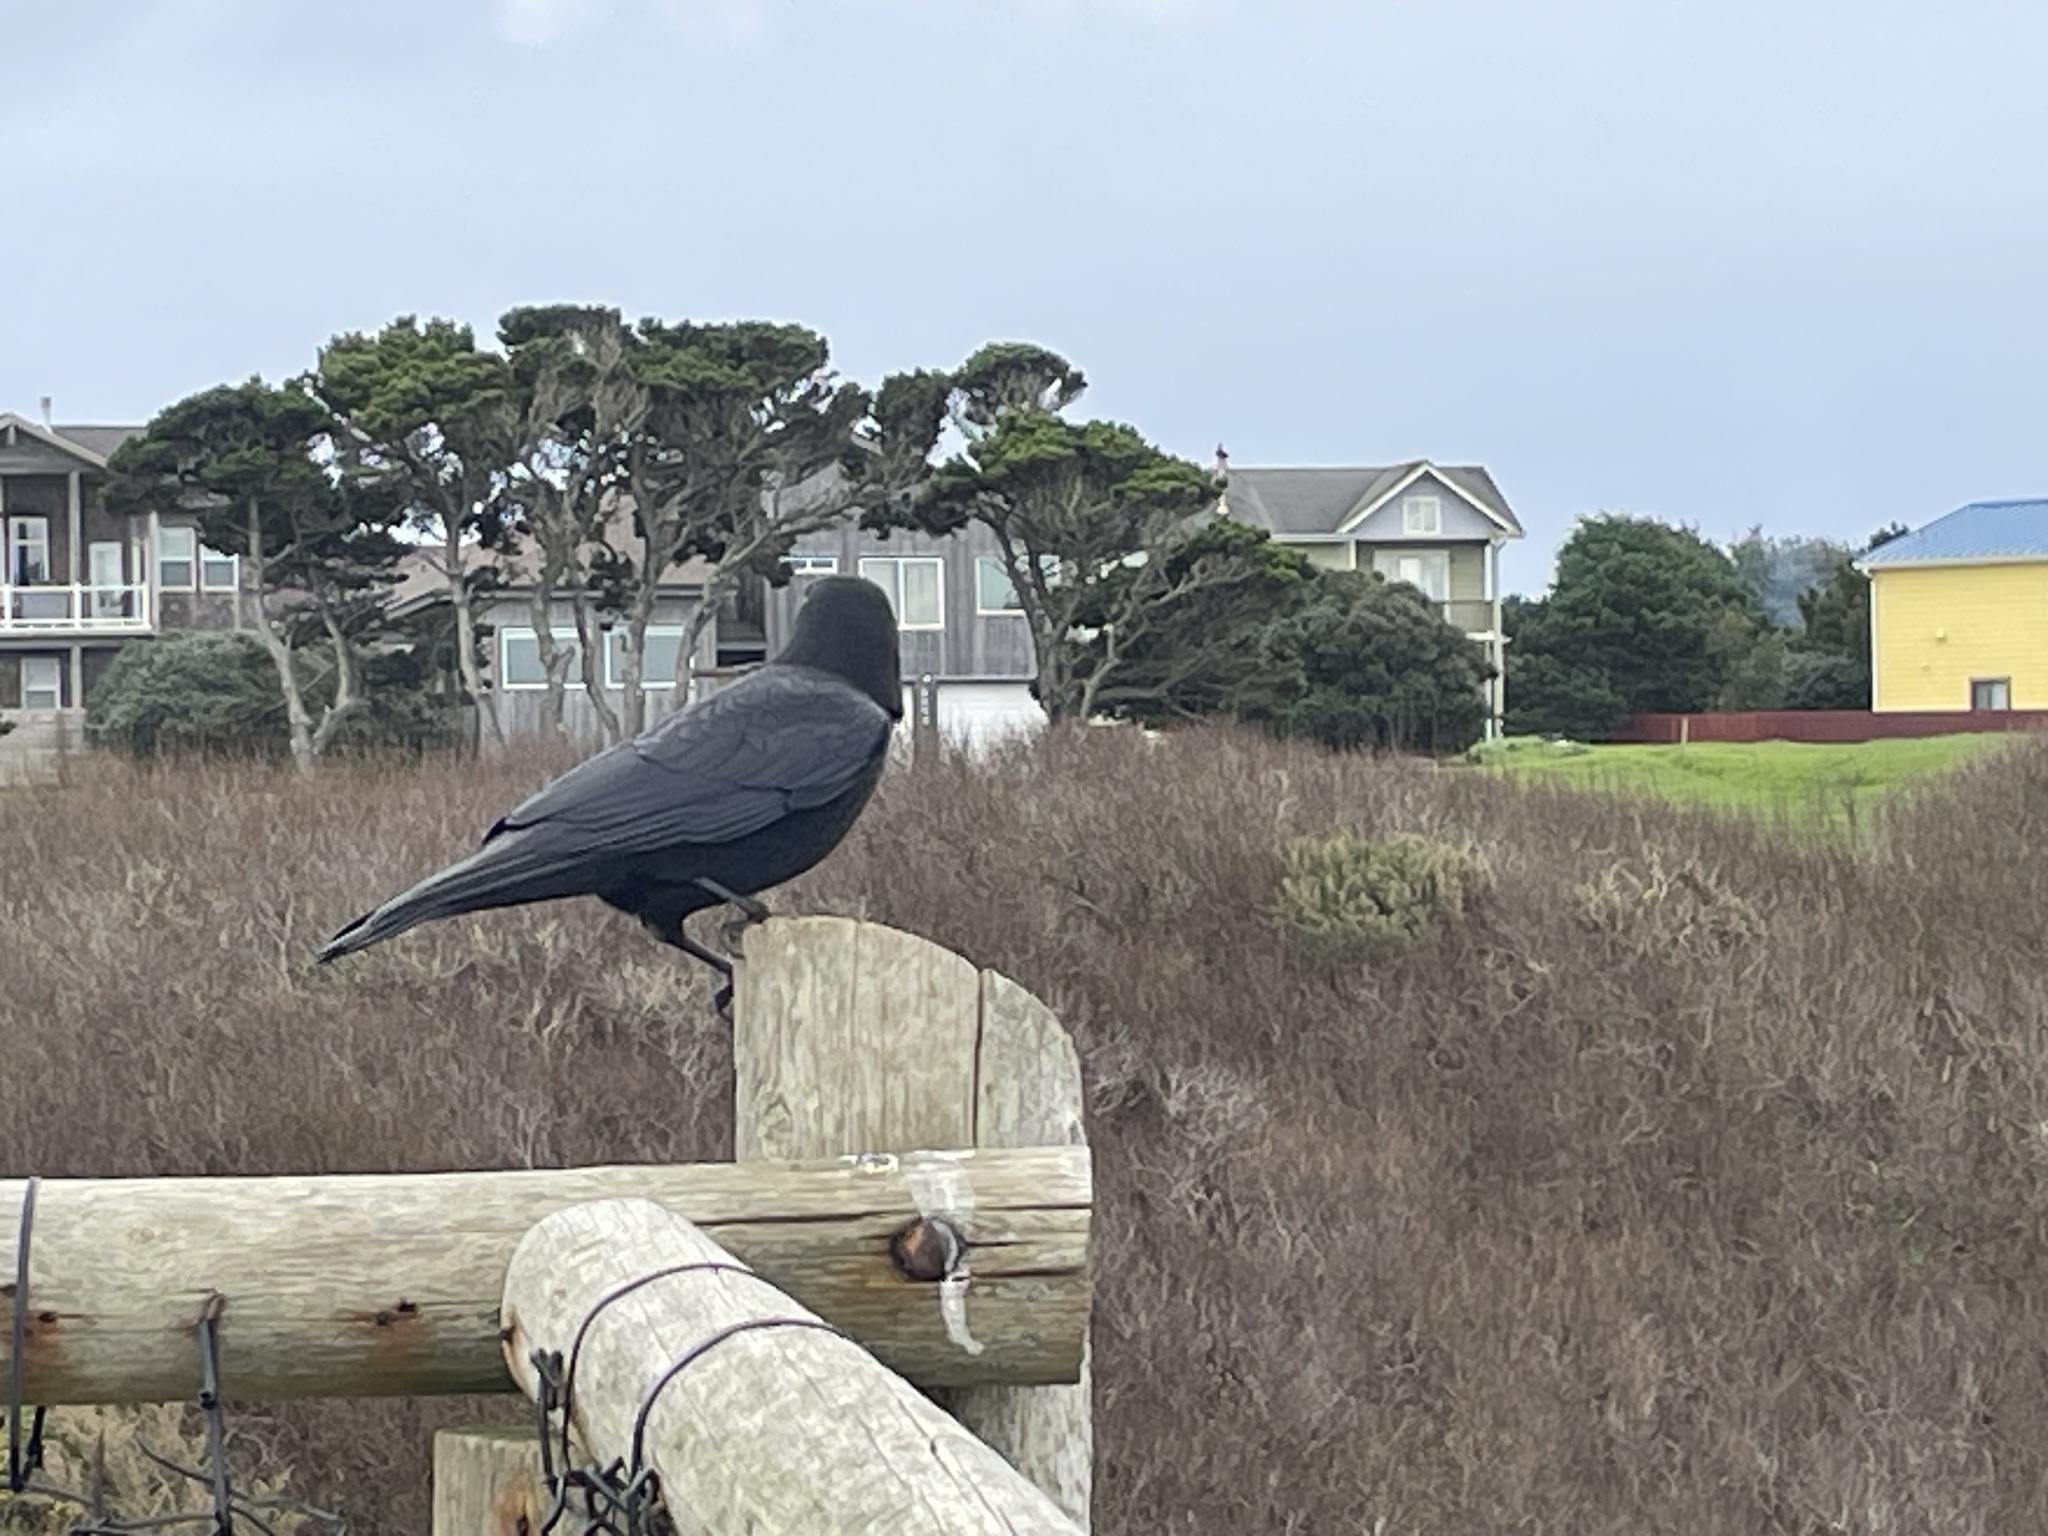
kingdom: Animalia
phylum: Chordata
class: Aves
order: Passeriformes
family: Corvidae
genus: Corvus
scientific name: Corvus brachyrhynchos
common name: American crow
